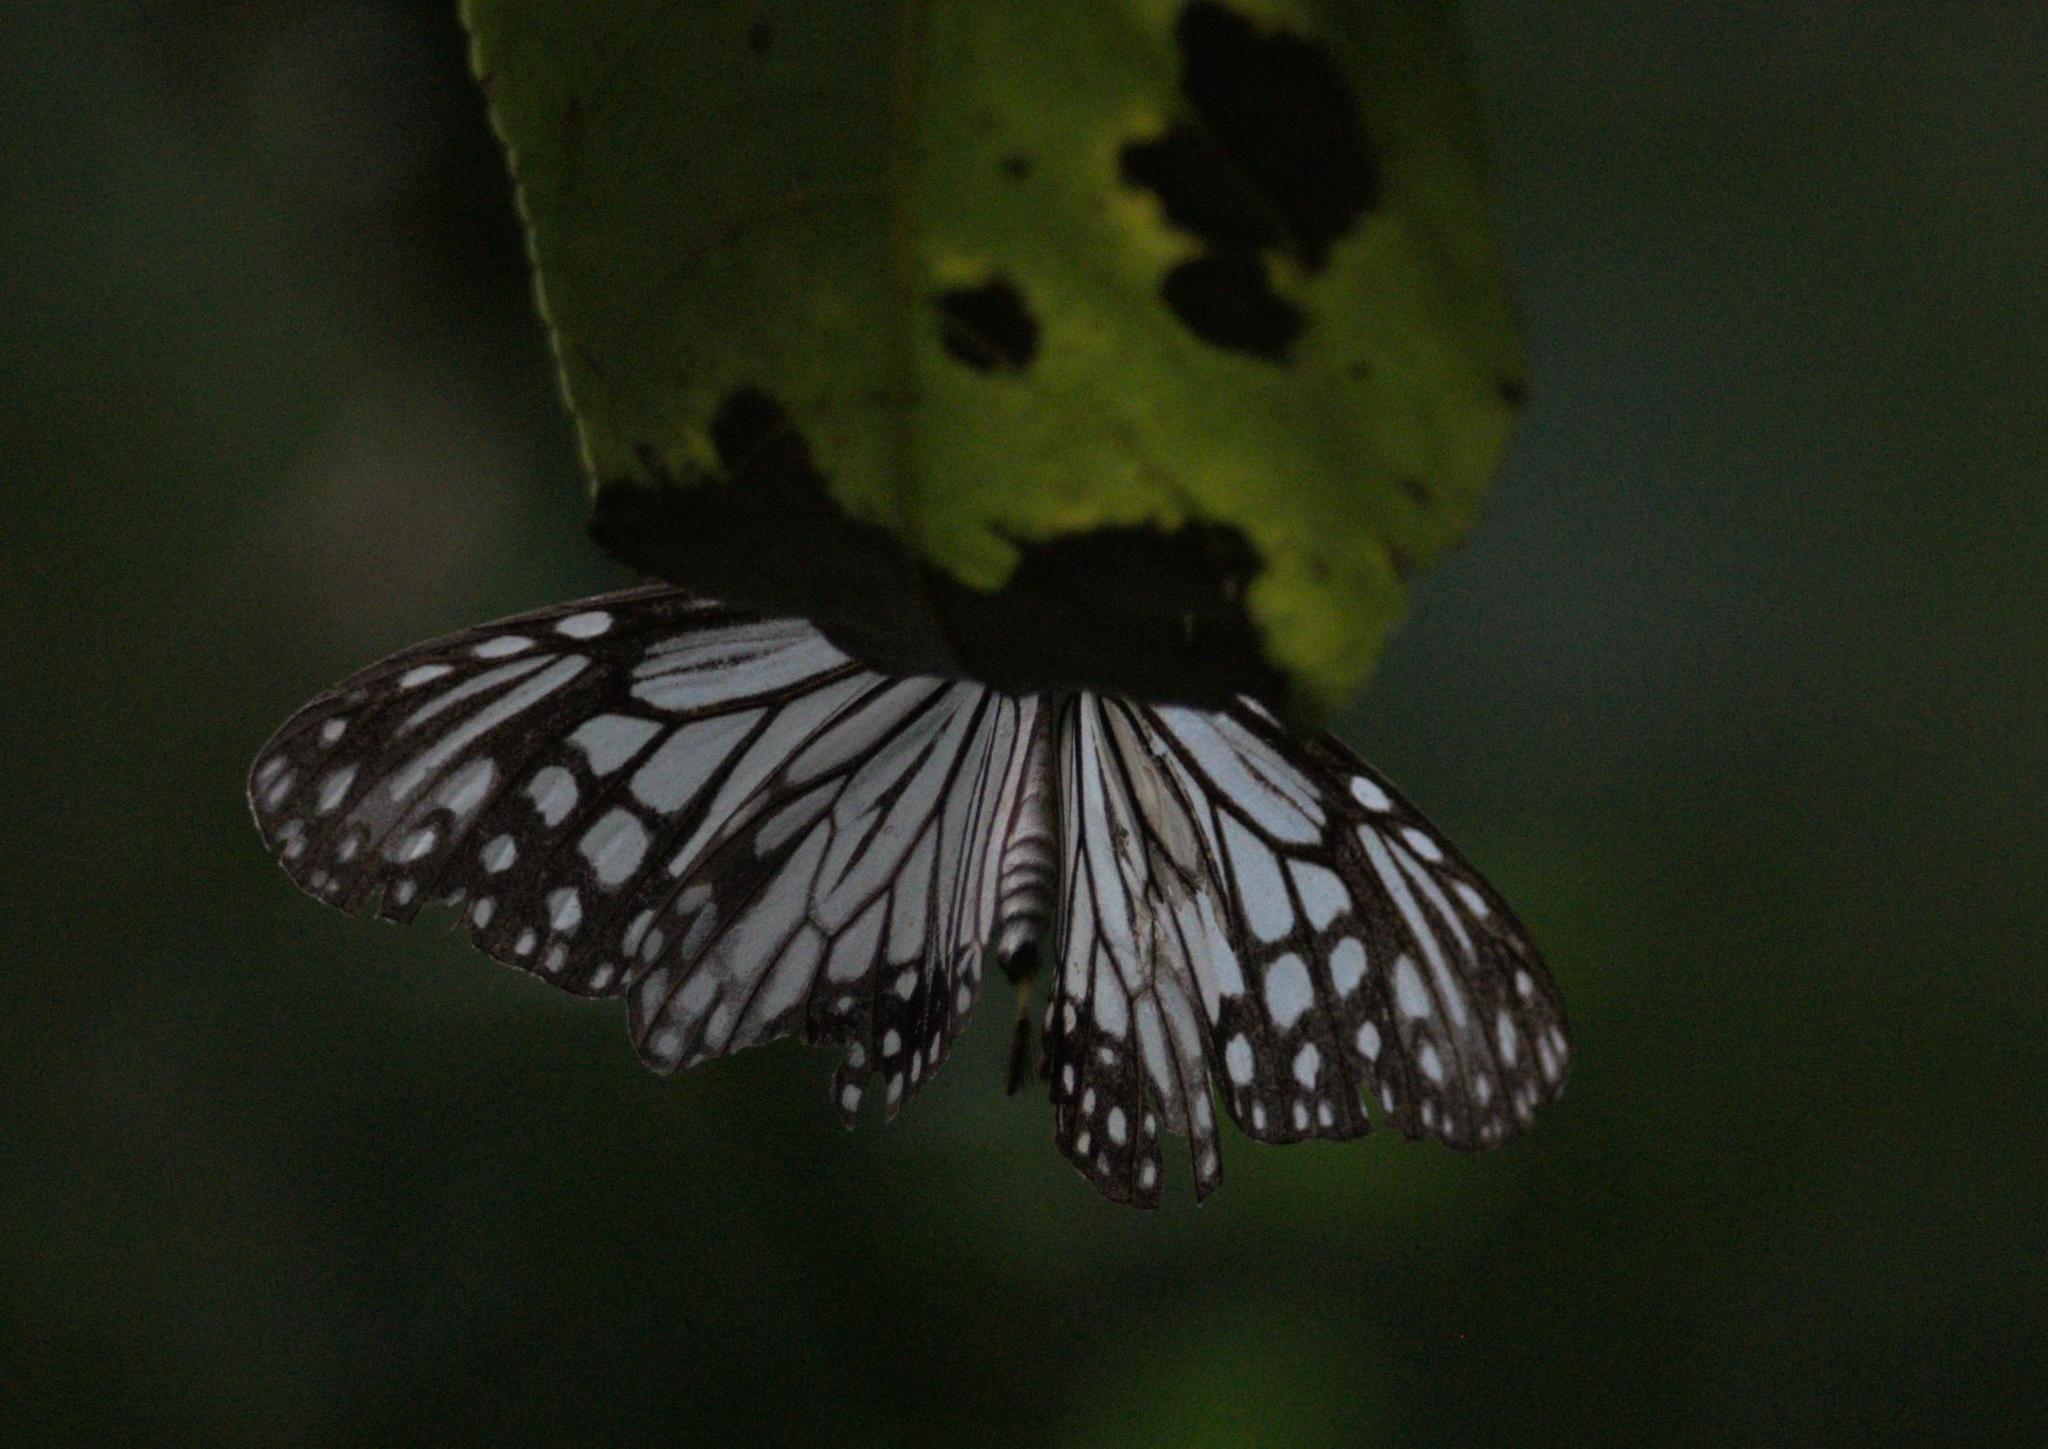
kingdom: Animalia
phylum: Arthropoda
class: Insecta
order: Lepidoptera
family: Nymphalidae
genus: Parantica
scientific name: Parantica aglea
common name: Glassy tiger
